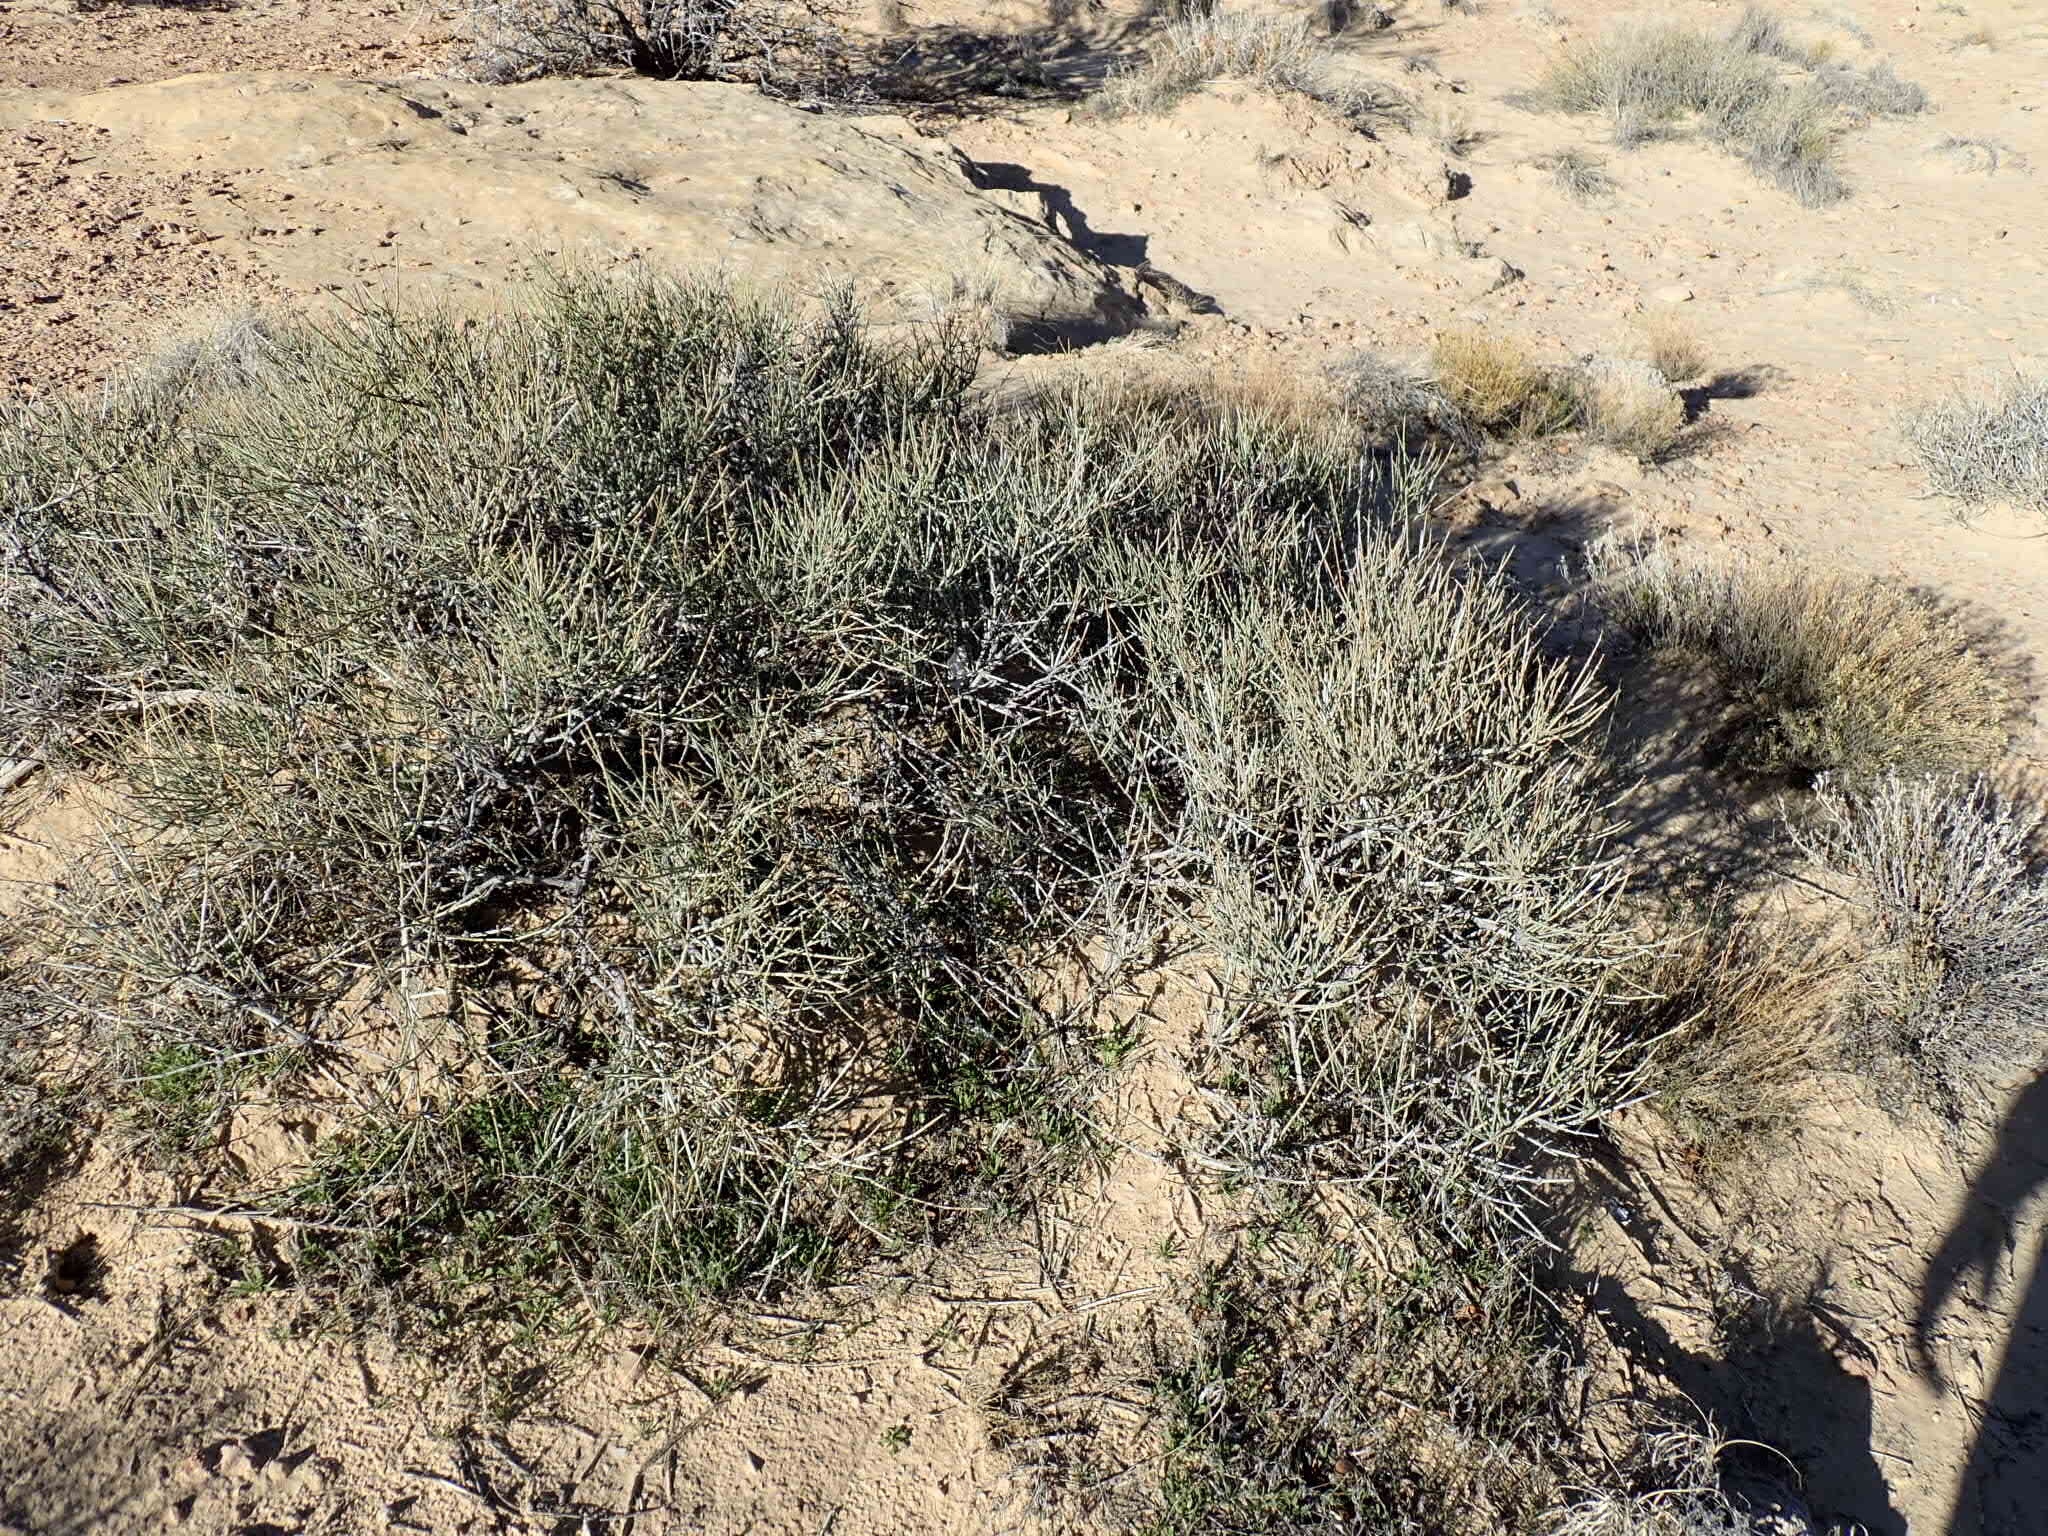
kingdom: Plantae
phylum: Tracheophyta
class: Gnetopsida
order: Ephedrales
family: Ephedraceae
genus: Ephedra
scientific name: Ephedra nevadensis
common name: Gray ephedra
